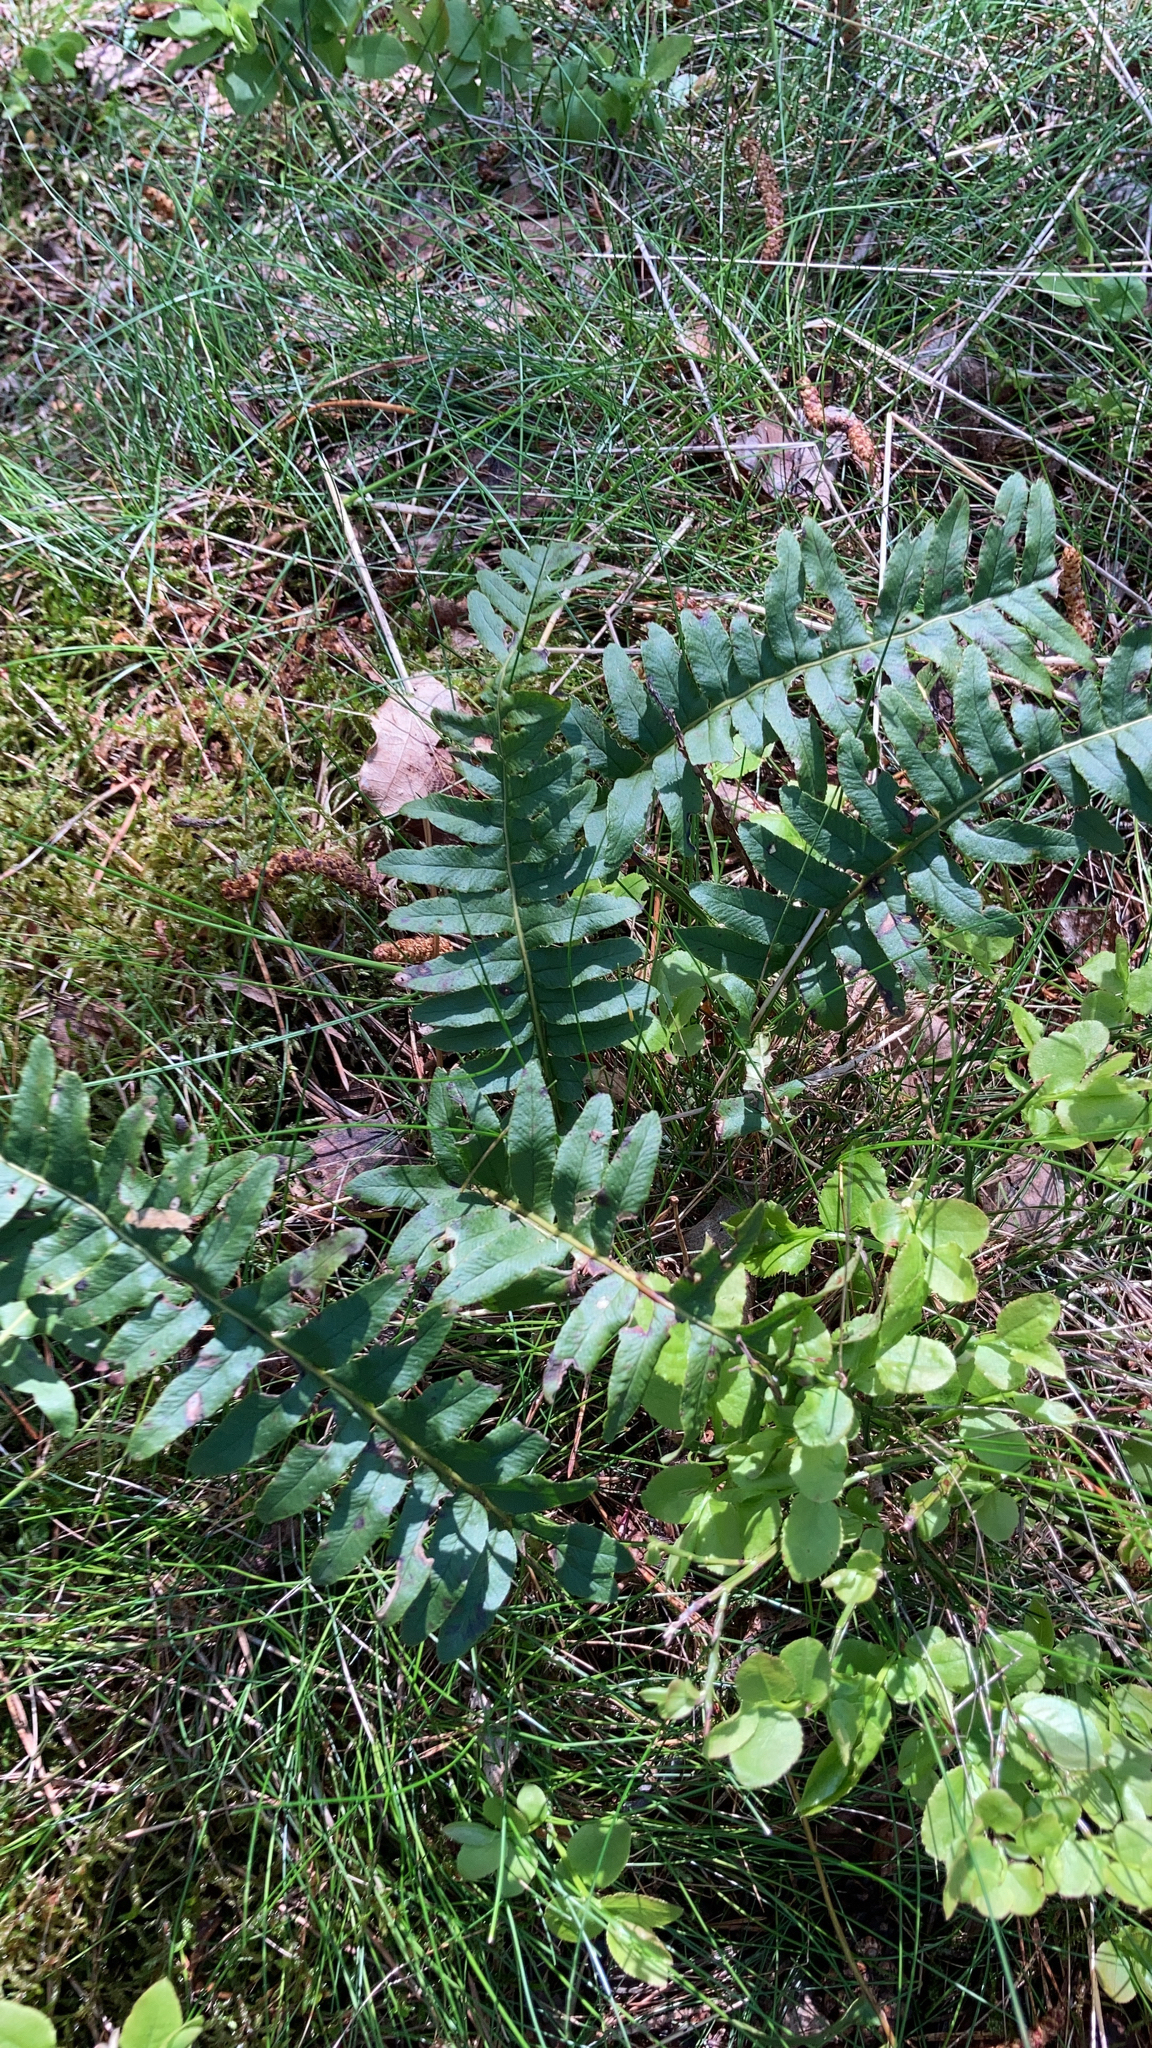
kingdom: Plantae
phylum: Tracheophyta
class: Polypodiopsida
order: Polypodiales
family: Polypodiaceae
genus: Polypodium
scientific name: Polypodium vulgare
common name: Common polypody
